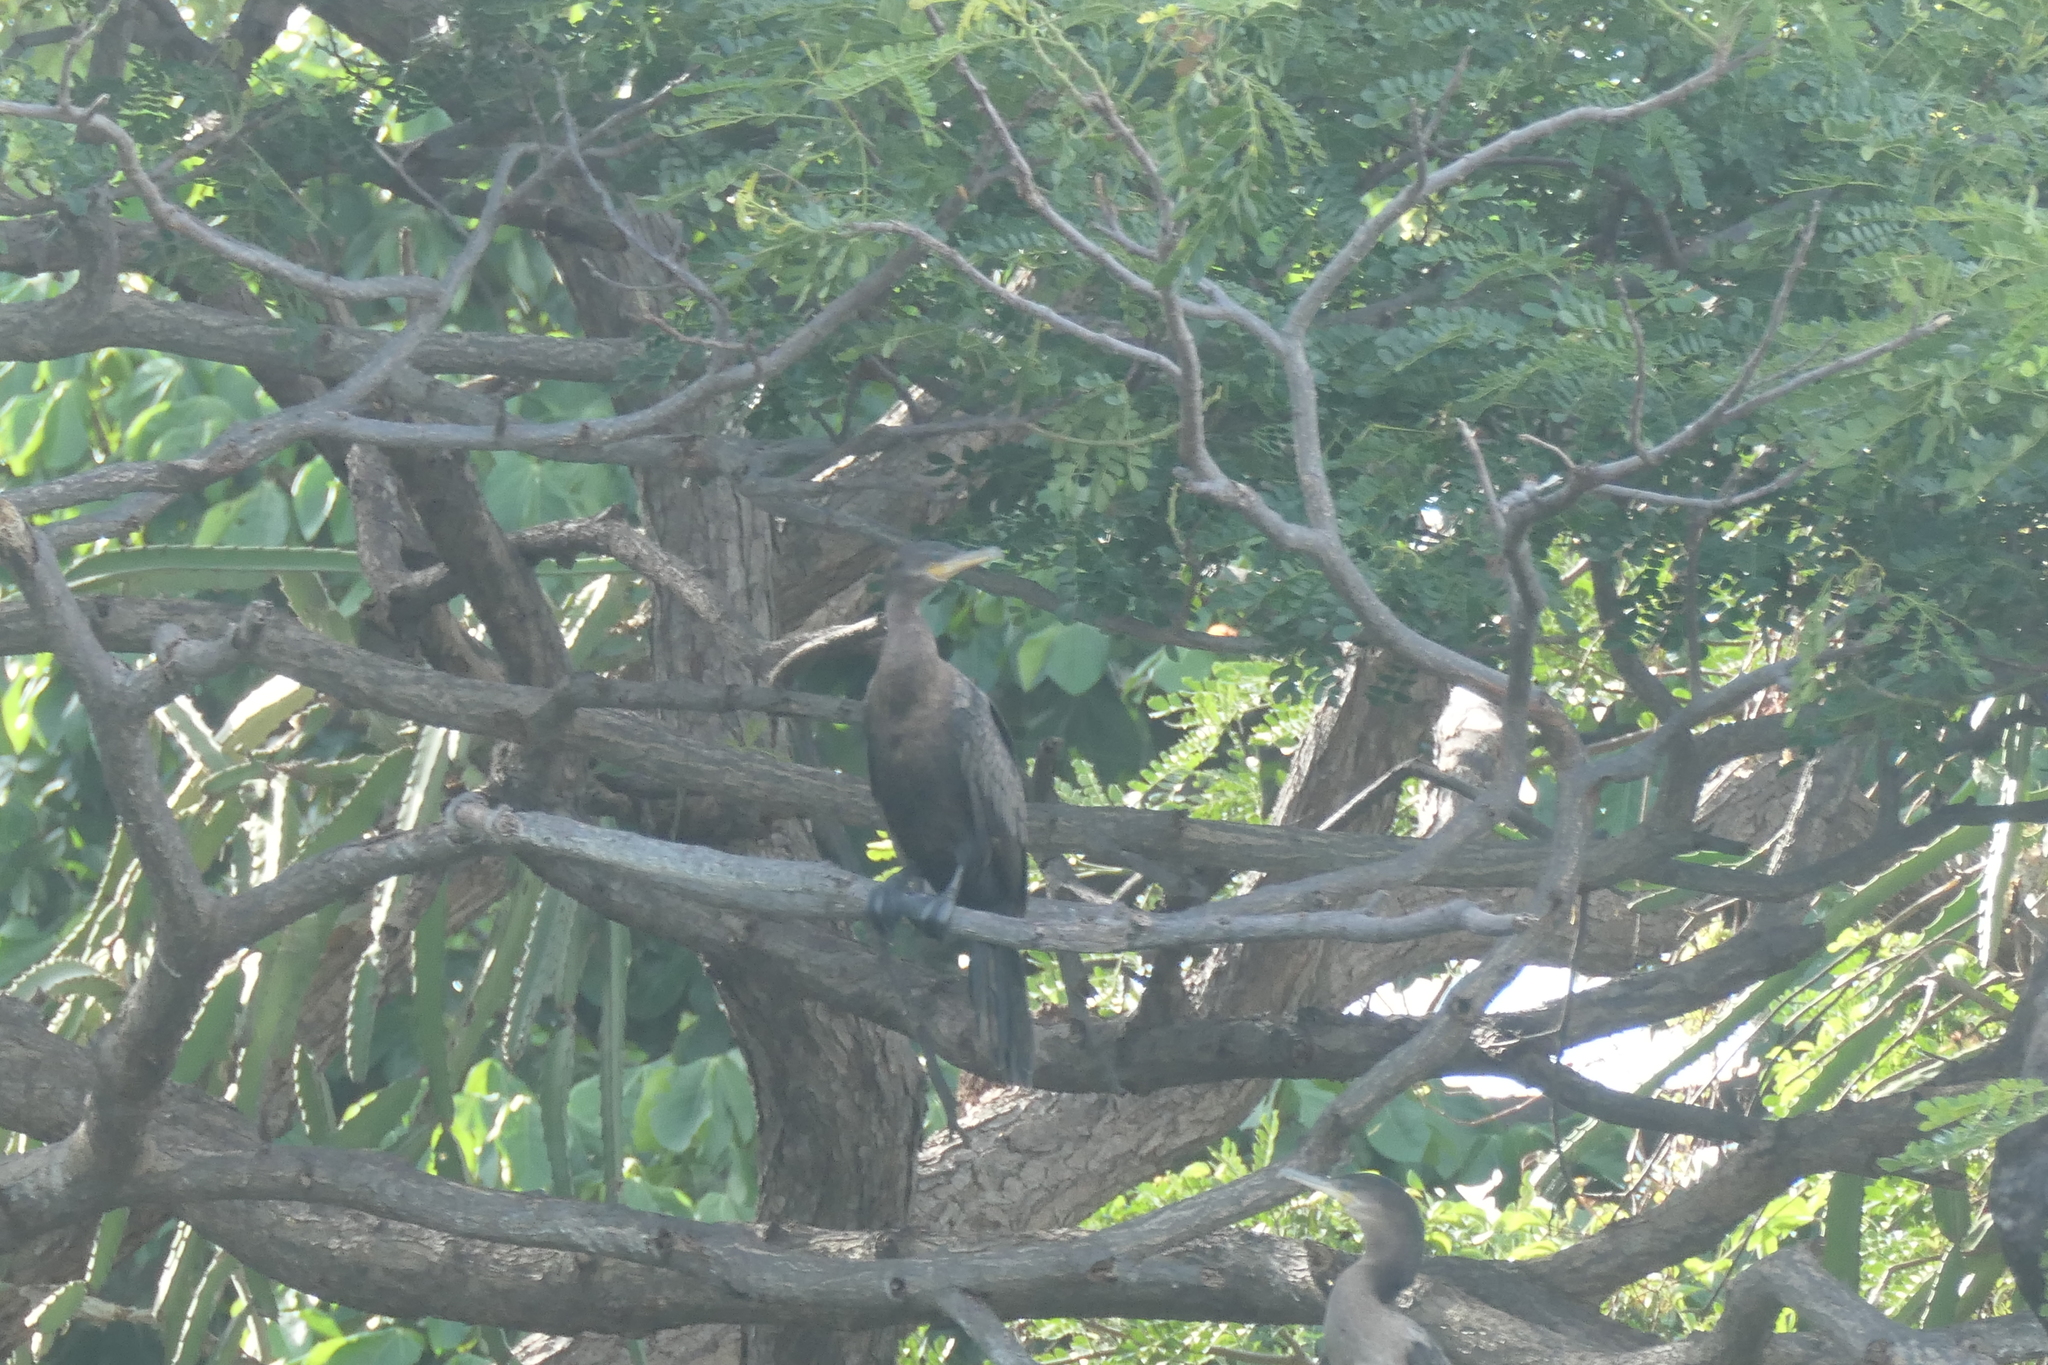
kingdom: Animalia
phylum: Chordata
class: Aves
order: Suliformes
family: Phalacrocoracidae
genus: Phalacrocorax
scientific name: Phalacrocorax brasilianus
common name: Neotropic cormorant
